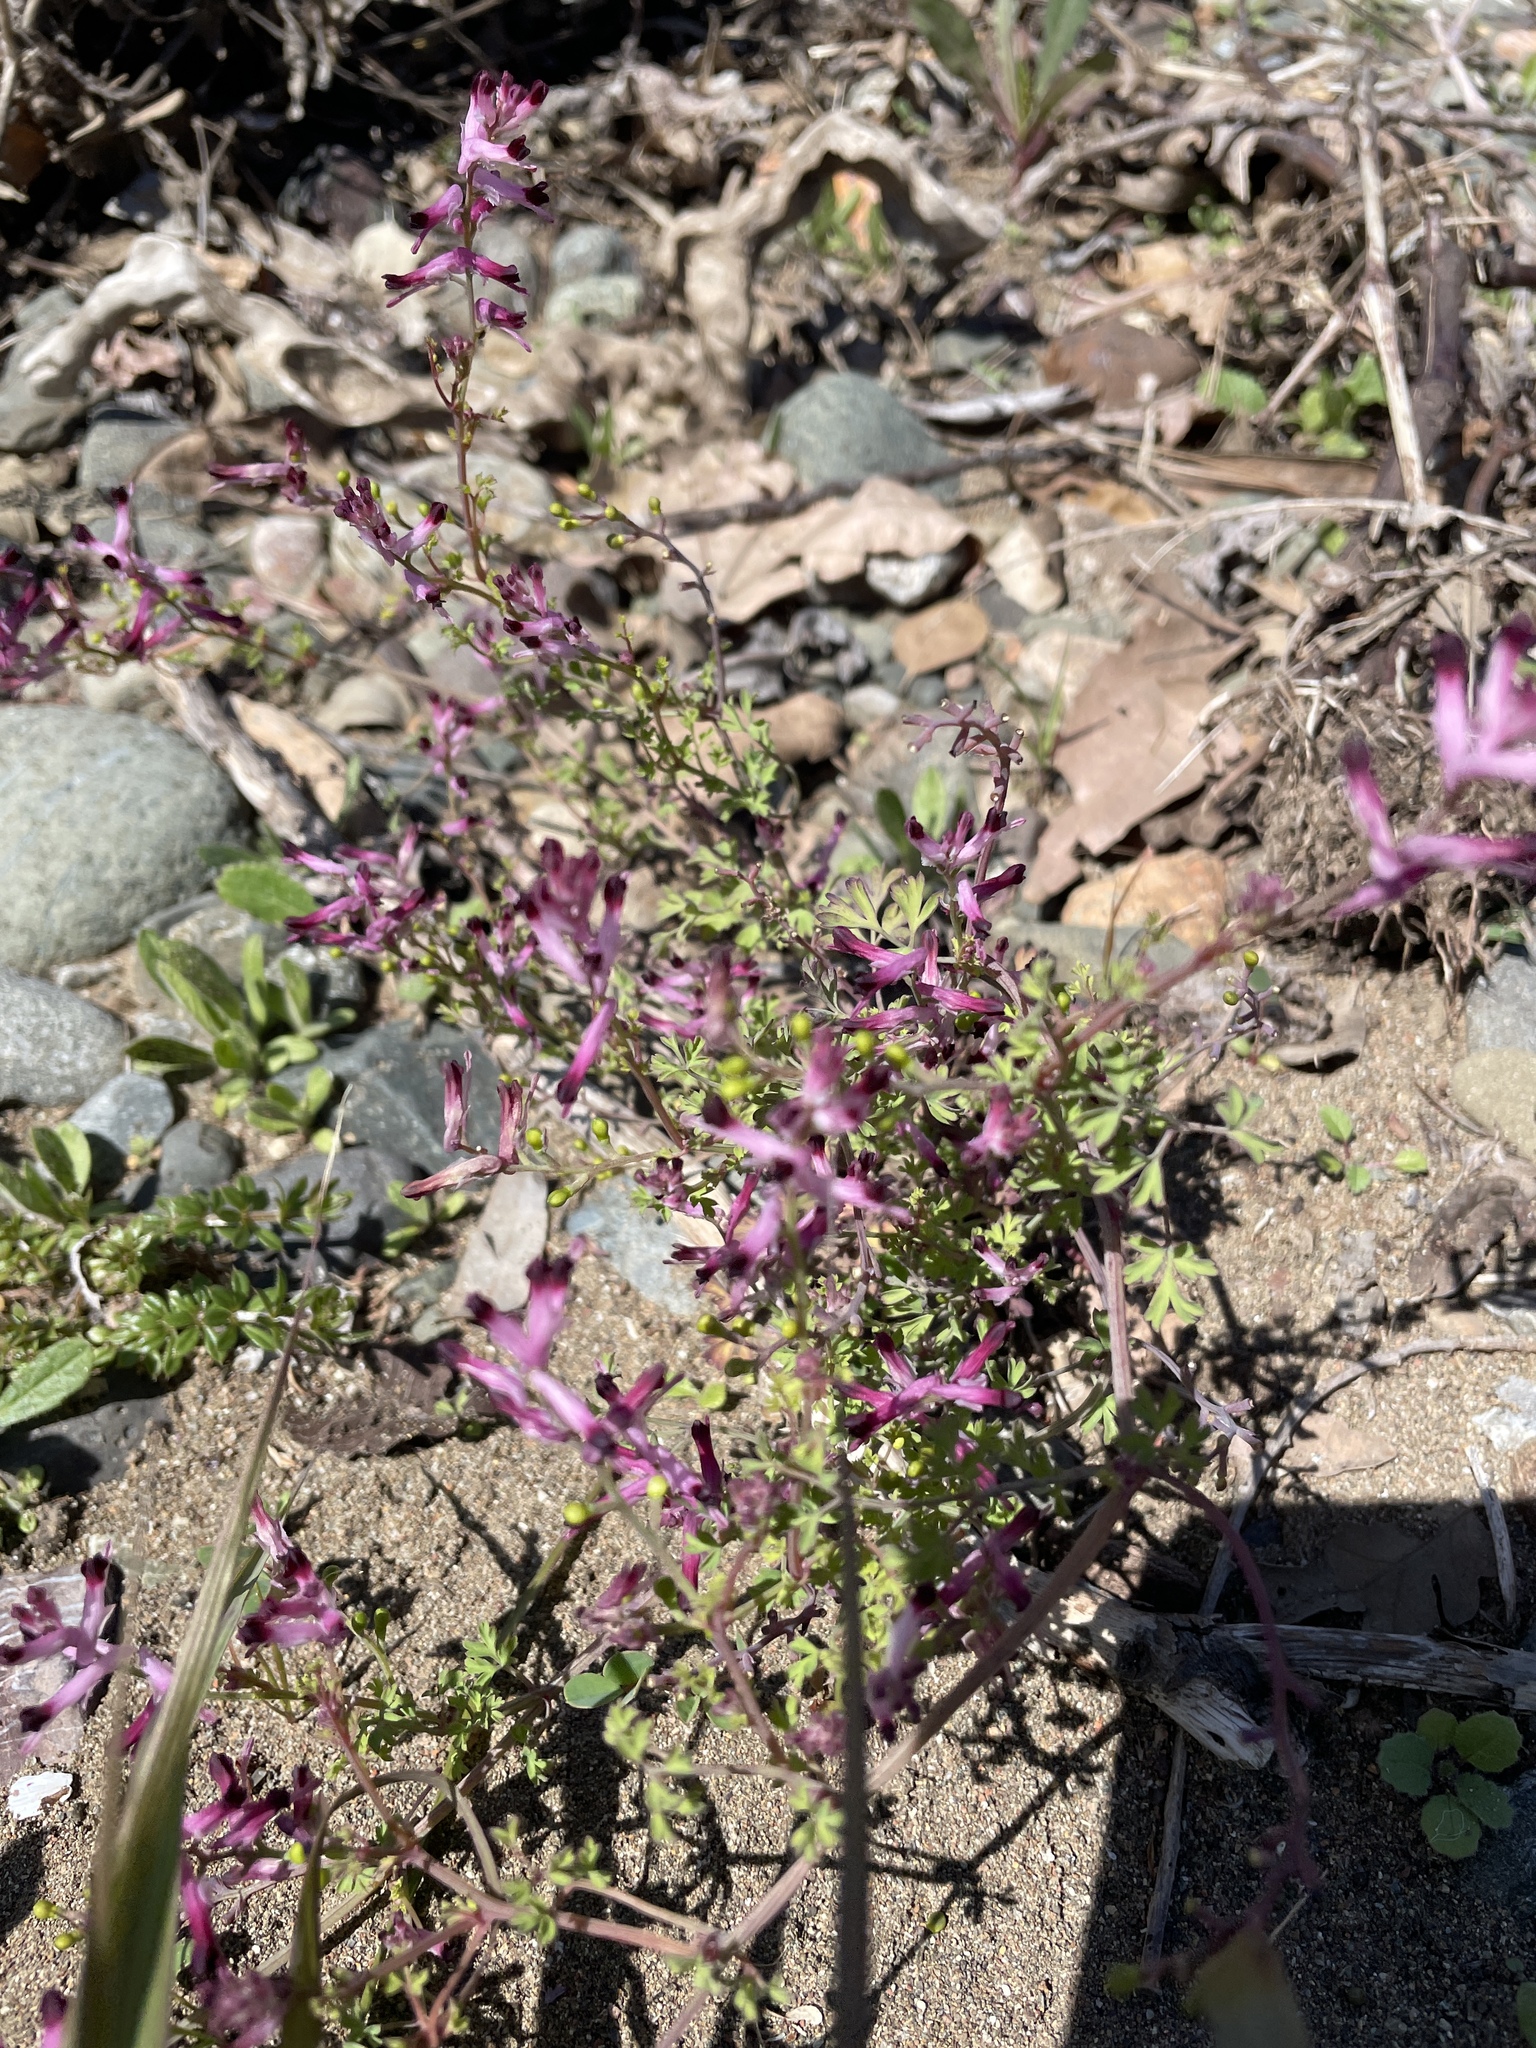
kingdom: Plantae
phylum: Tracheophyta
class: Magnoliopsida
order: Ranunculales
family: Papaveraceae
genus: Fumaria
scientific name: Fumaria muralis
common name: Common ramping-fumitory
